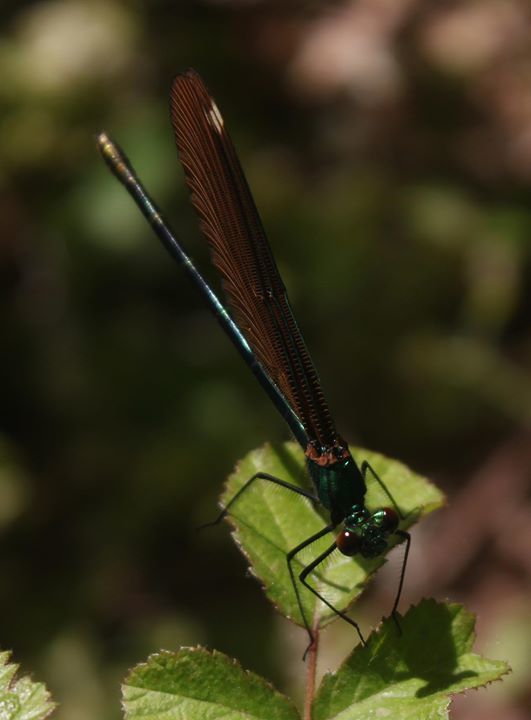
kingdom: Animalia
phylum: Arthropoda
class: Insecta
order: Odonata
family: Calopterygidae
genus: Calopteryx
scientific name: Calopteryx virgo
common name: Beautiful demoiselle
